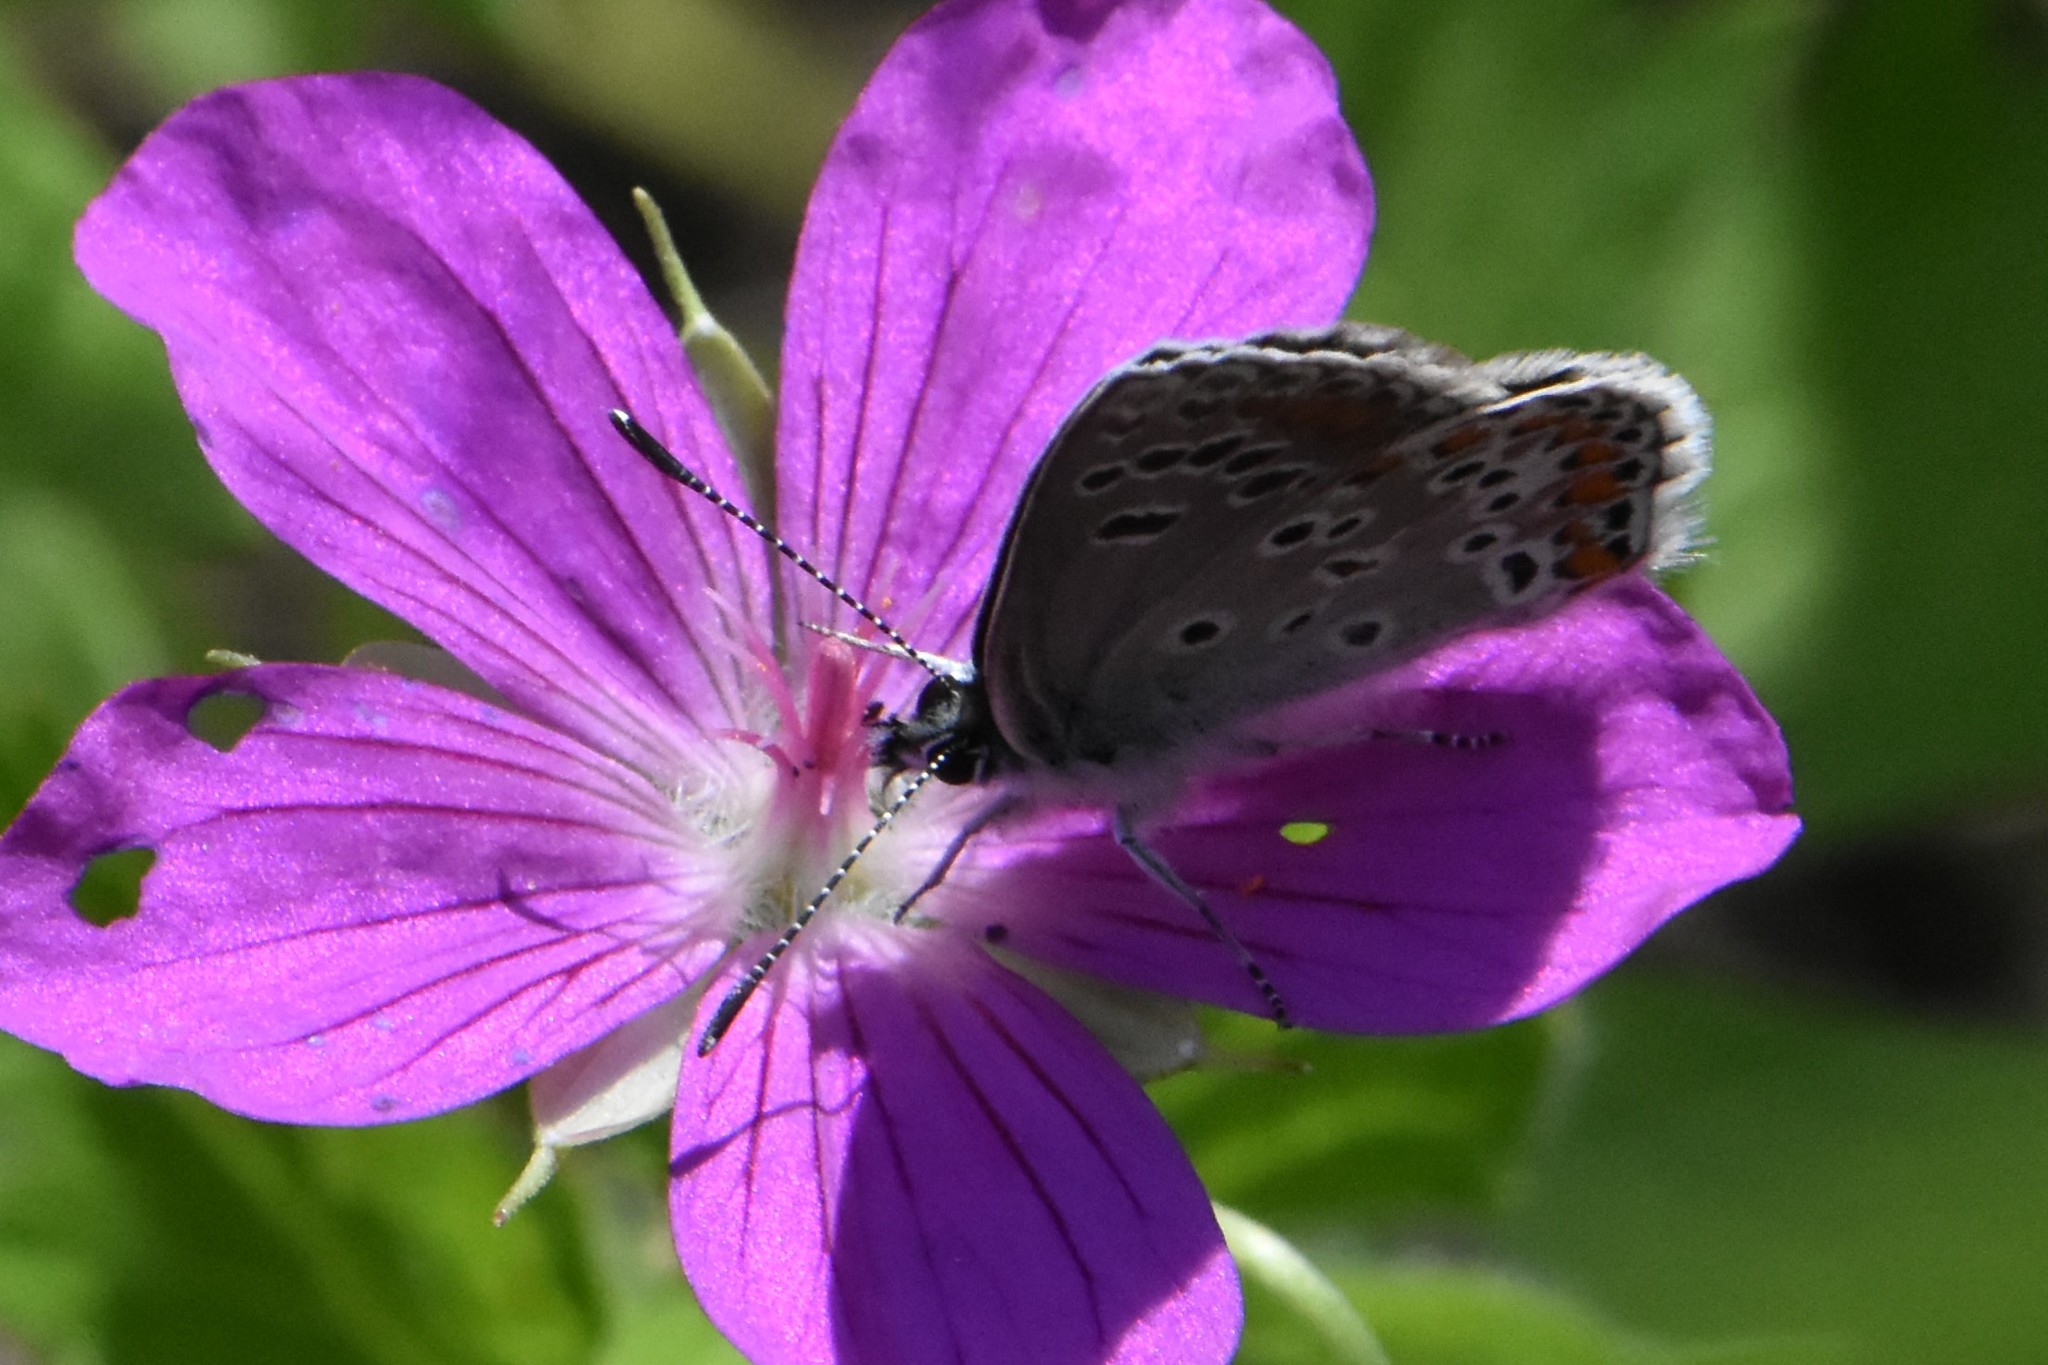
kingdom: Animalia
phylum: Arthropoda
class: Insecta
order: Lepidoptera
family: Lycaenidae
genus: Aricia
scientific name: Aricia artaxerxes
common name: Northern brown argus
